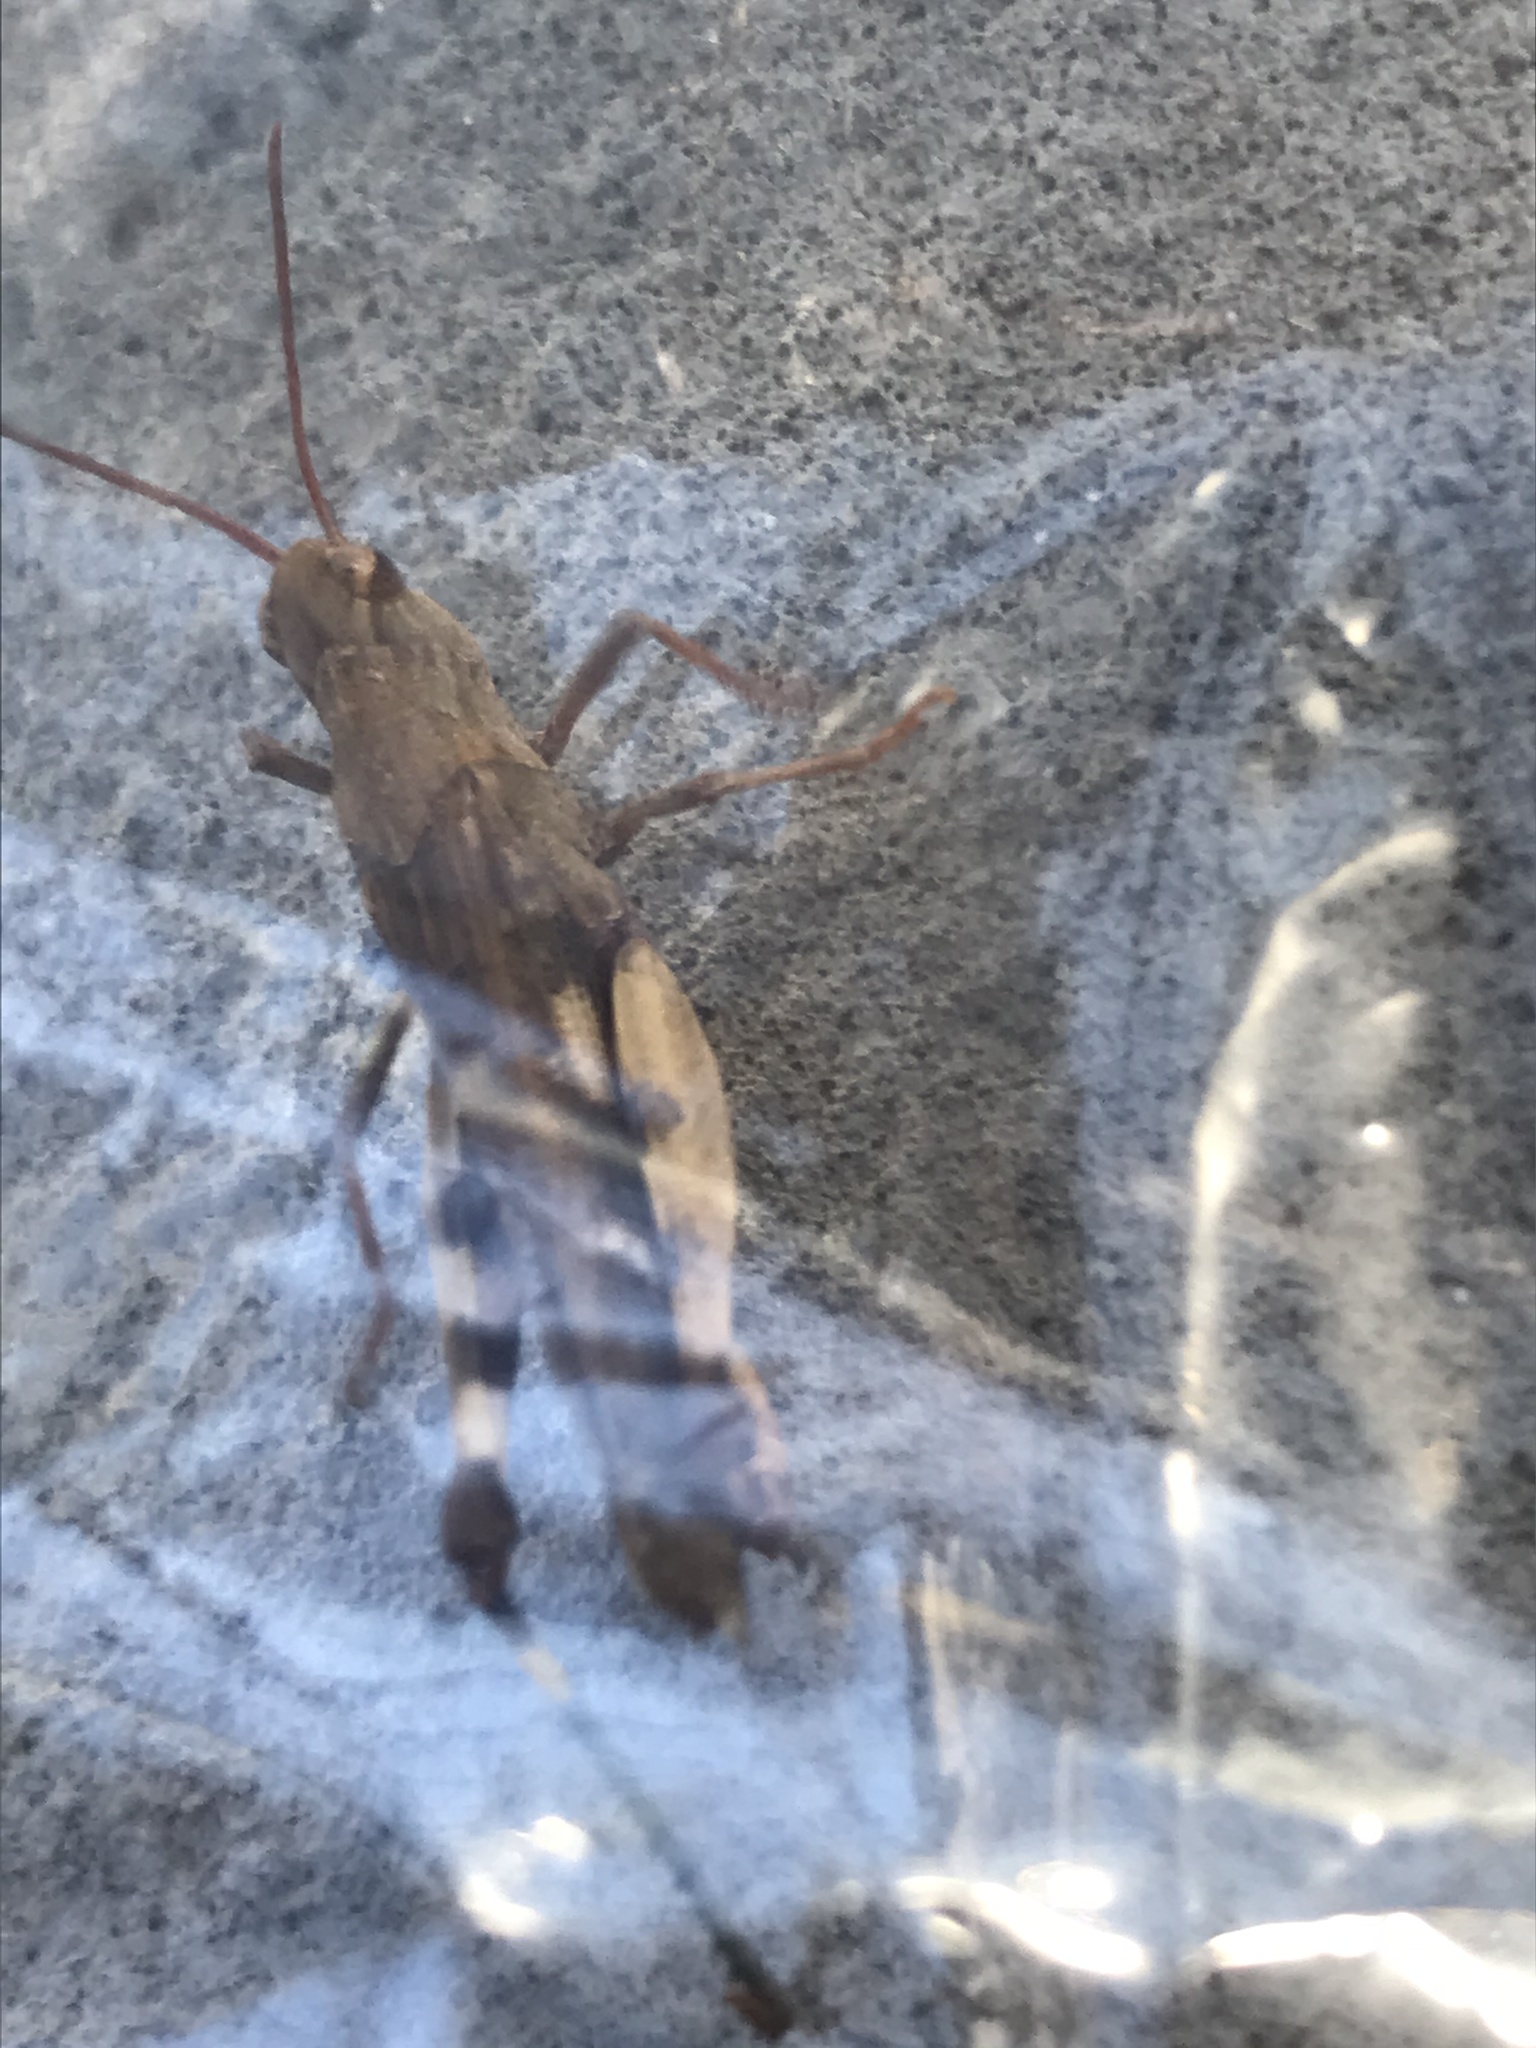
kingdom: Animalia
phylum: Arthropoda
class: Insecta
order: Orthoptera
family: Acrididae
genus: Chortophaga
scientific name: Chortophaga viridifasciata
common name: Green-striped grasshopper
